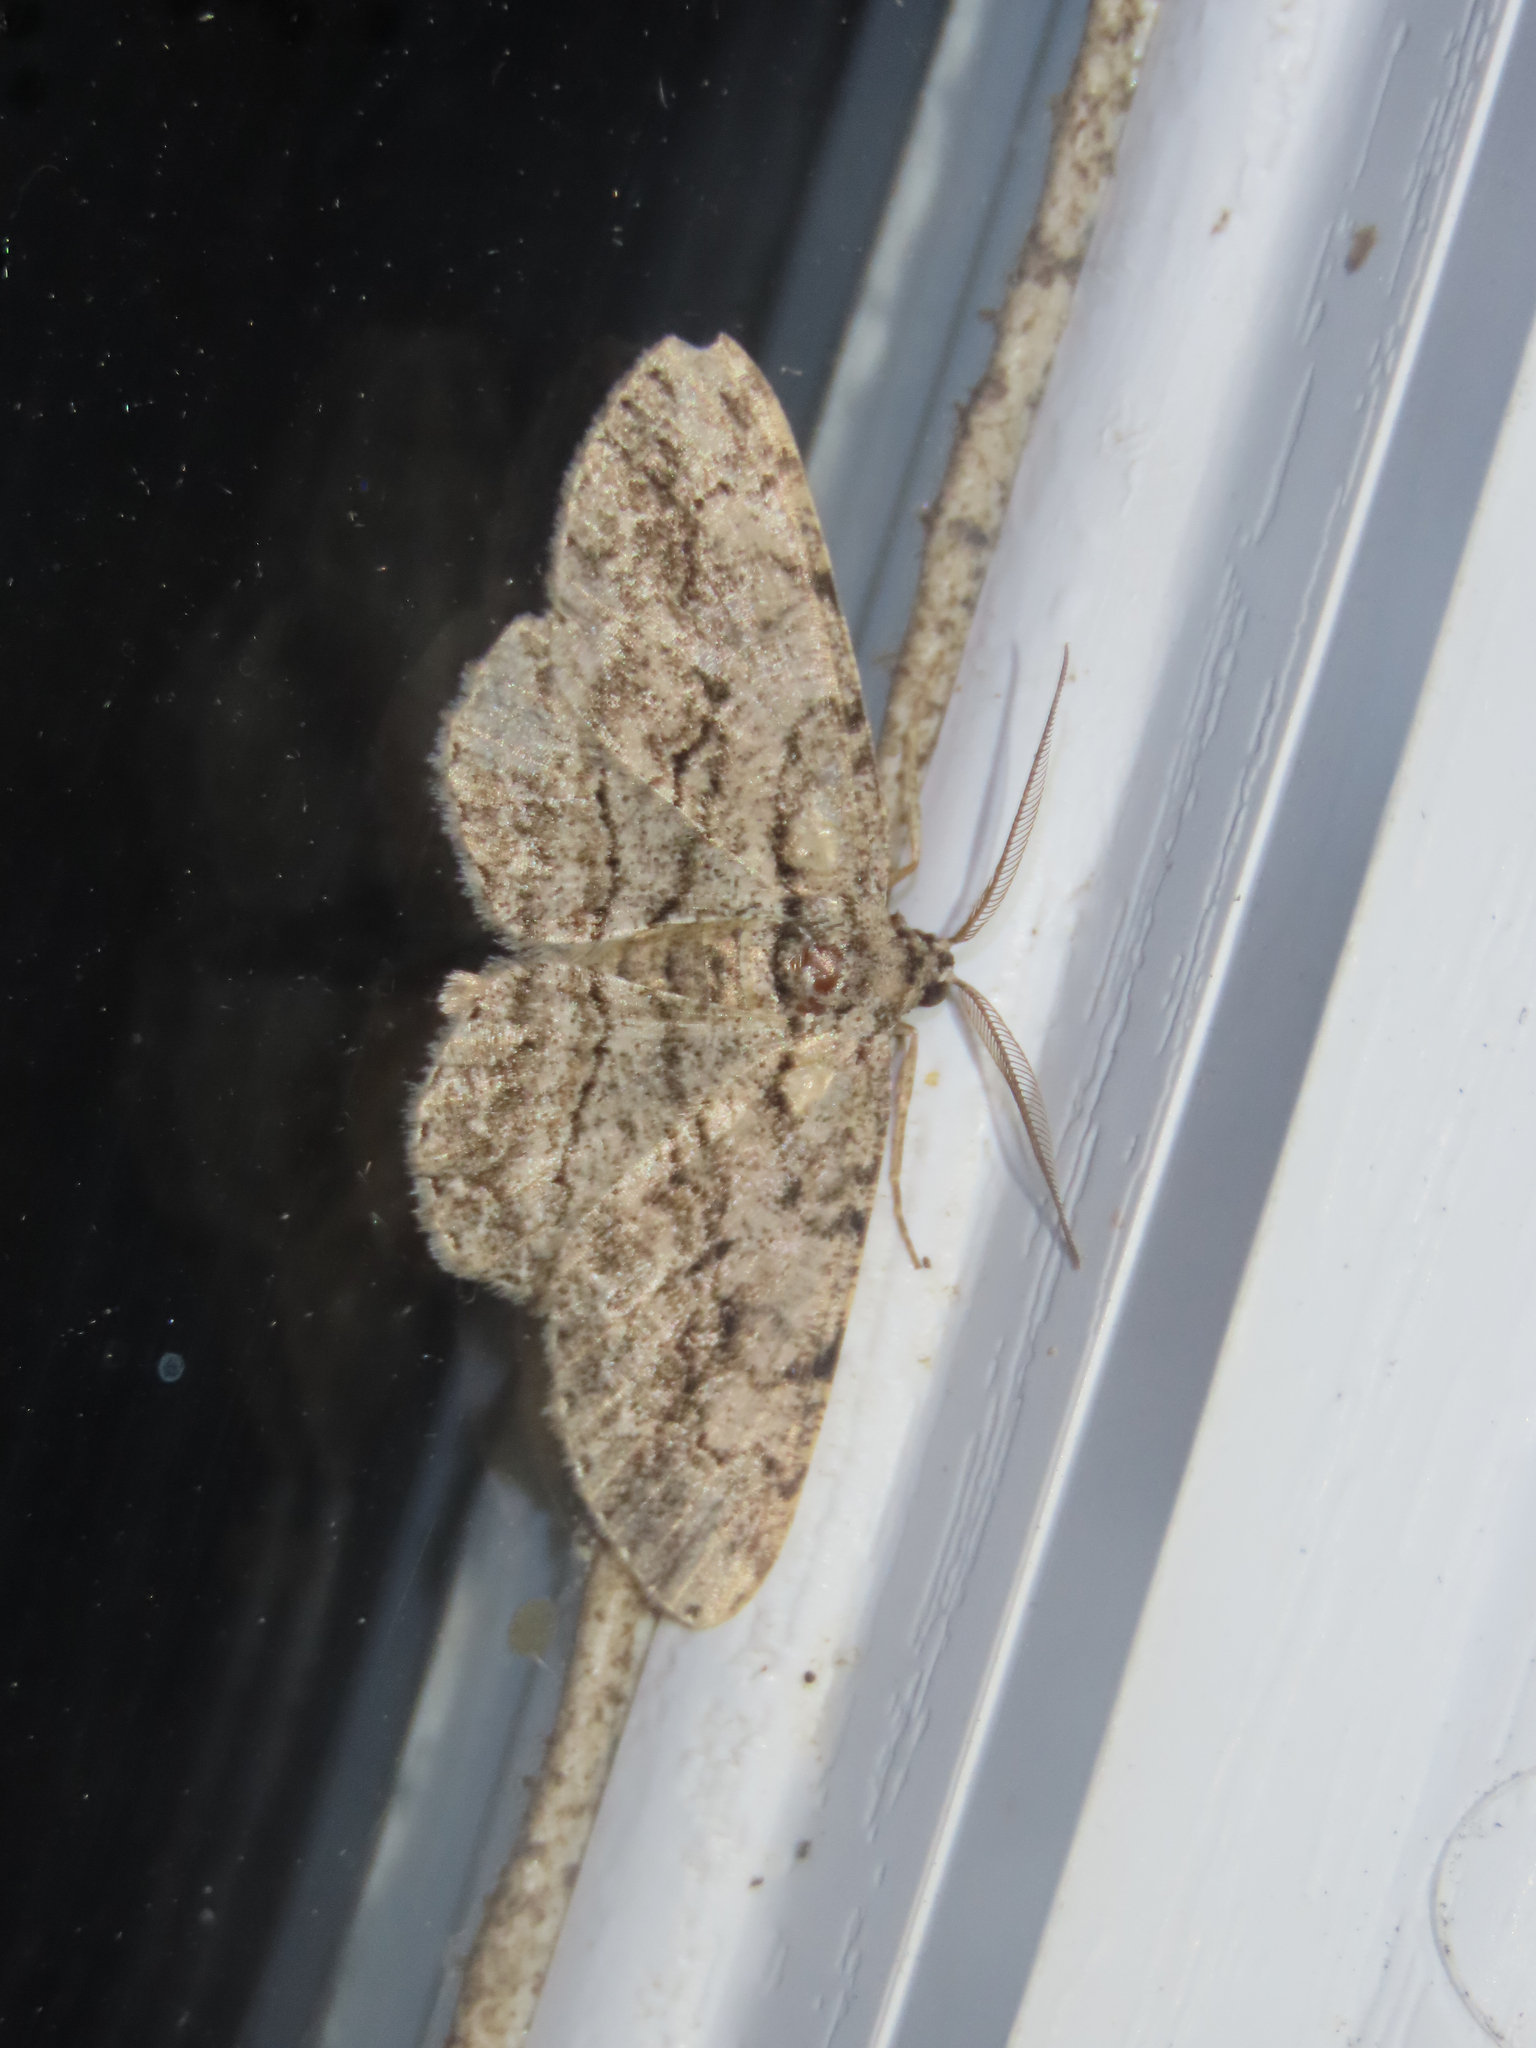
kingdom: Animalia
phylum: Arthropoda
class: Insecta
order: Lepidoptera
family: Geometridae
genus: Anavitrinella
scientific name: Anavitrinella pampinaria
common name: Common gray
